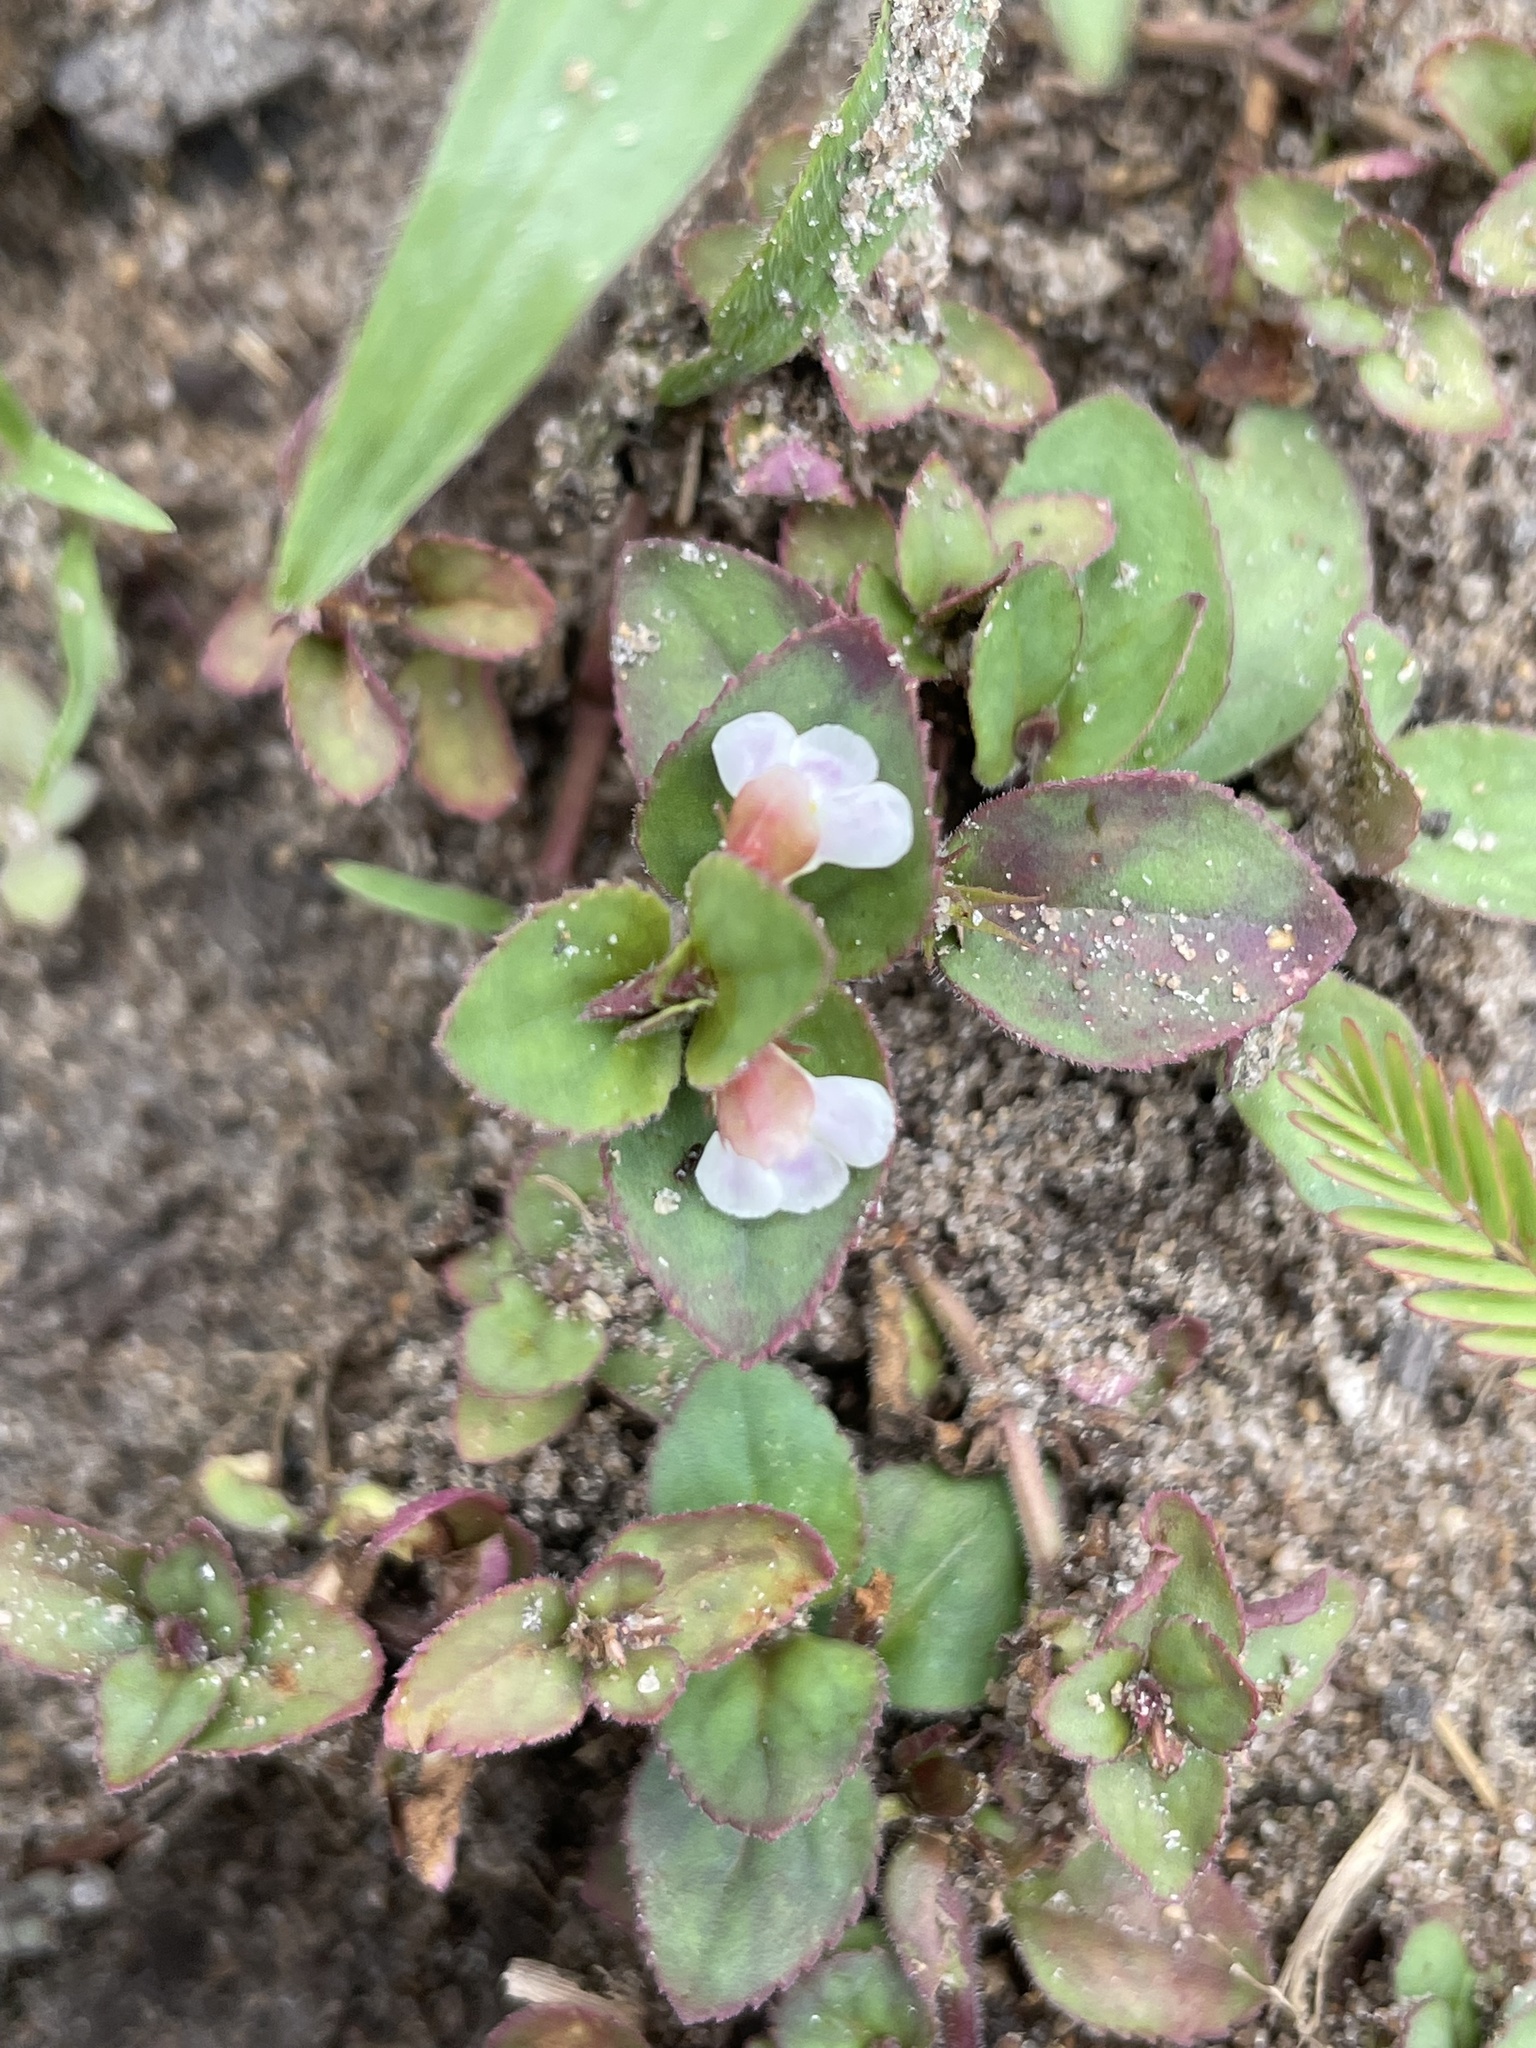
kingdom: Plantae
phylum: Tracheophyta
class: Magnoliopsida
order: Lamiales
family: Linderniaceae
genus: Vandellia
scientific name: Vandellia diffusa
